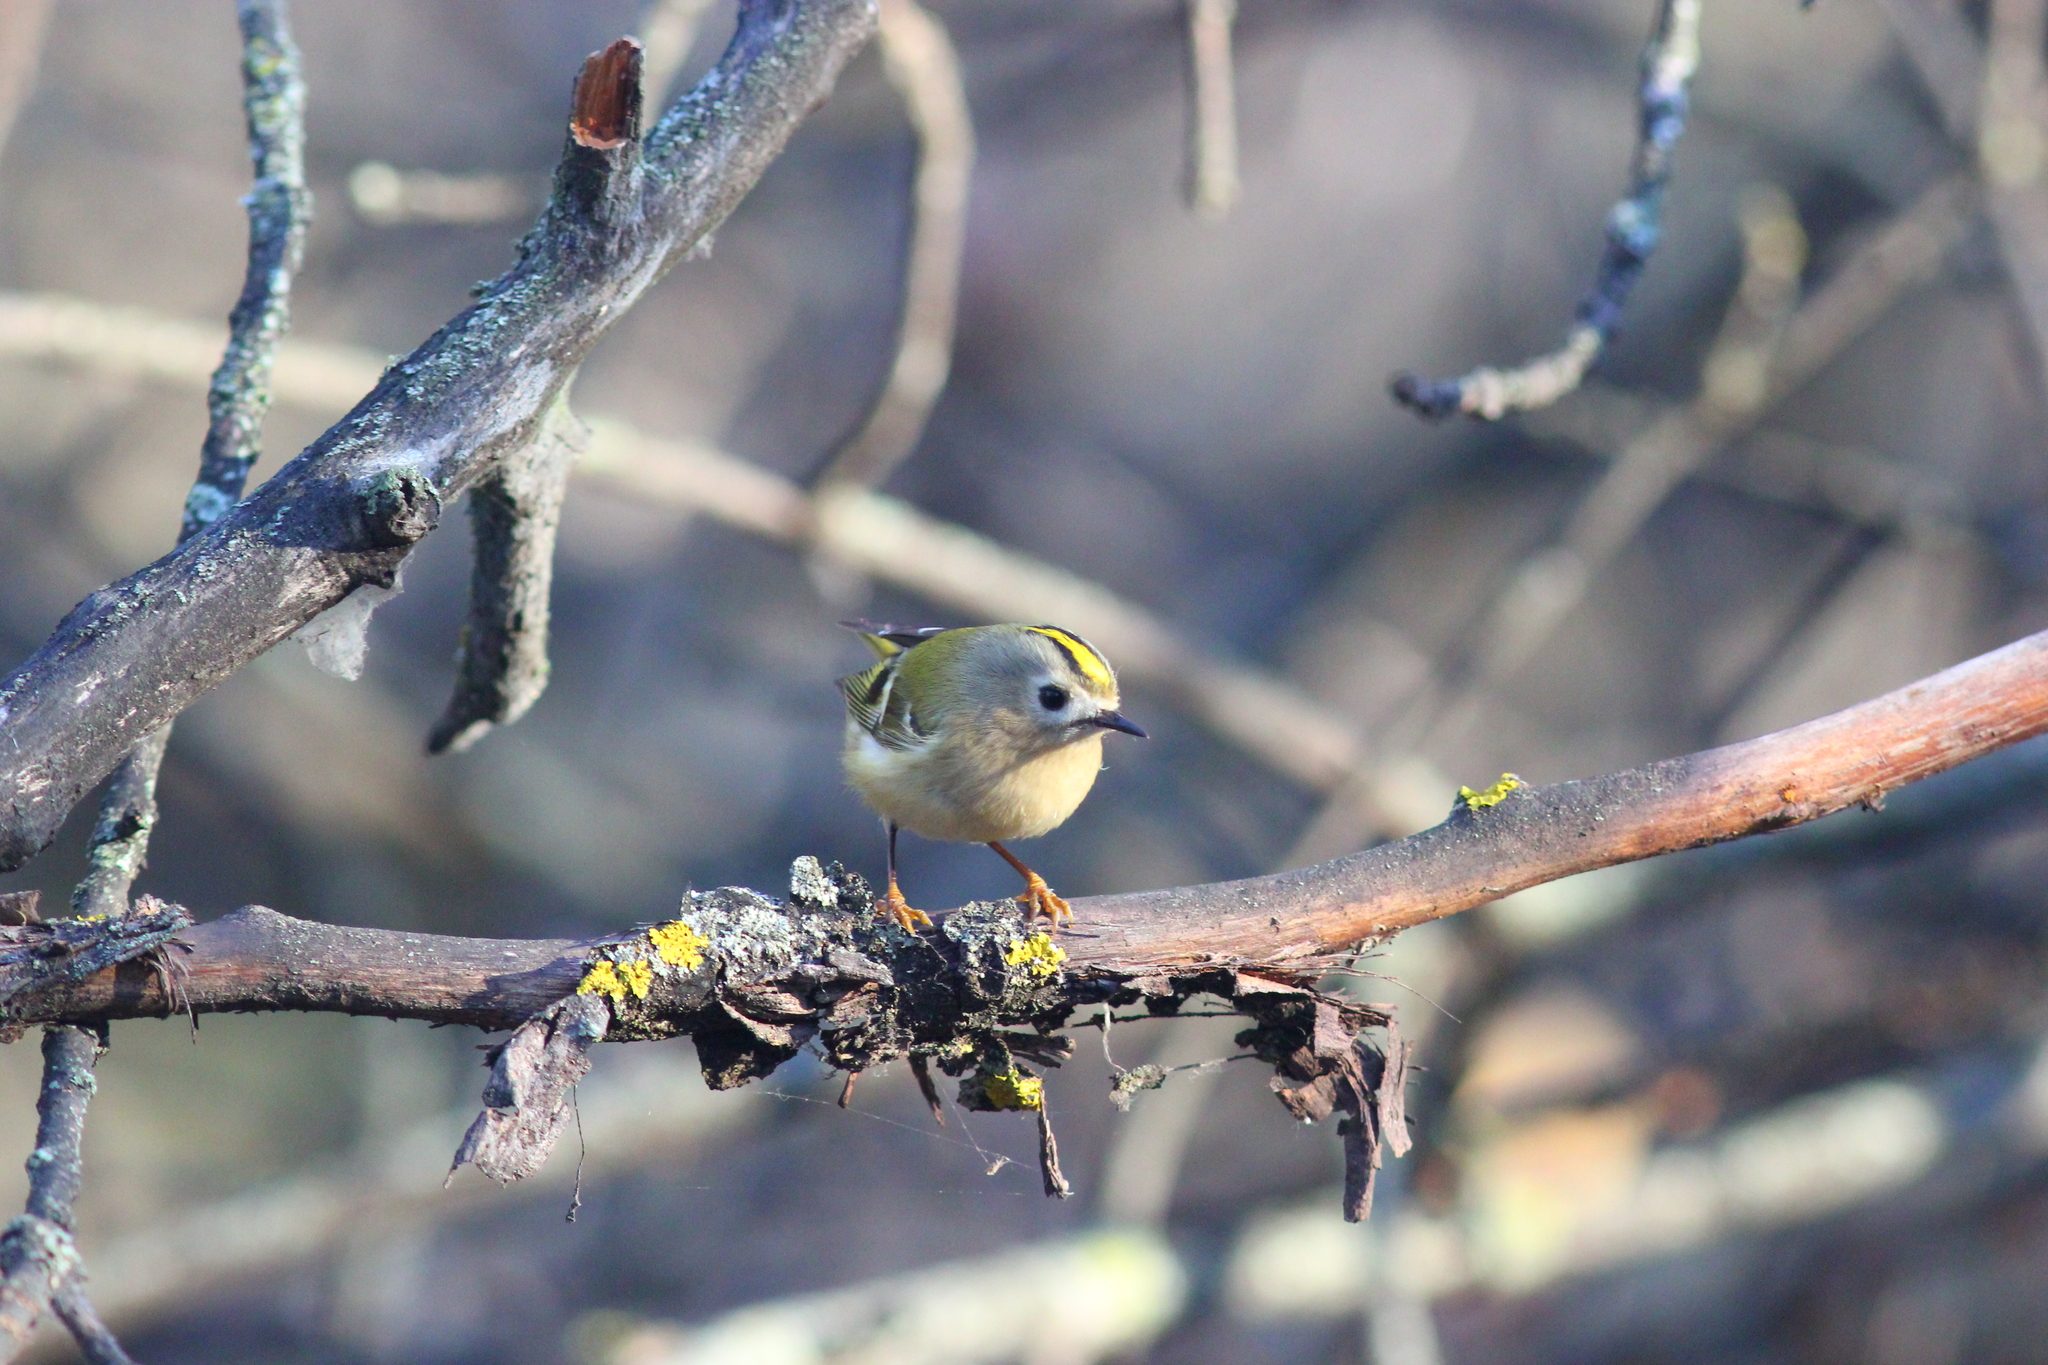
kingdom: Animalia
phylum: Chordata
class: Aves
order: Passeriformes
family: Regulidae
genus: Regulus
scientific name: Regulus regulus
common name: Goldcrest
